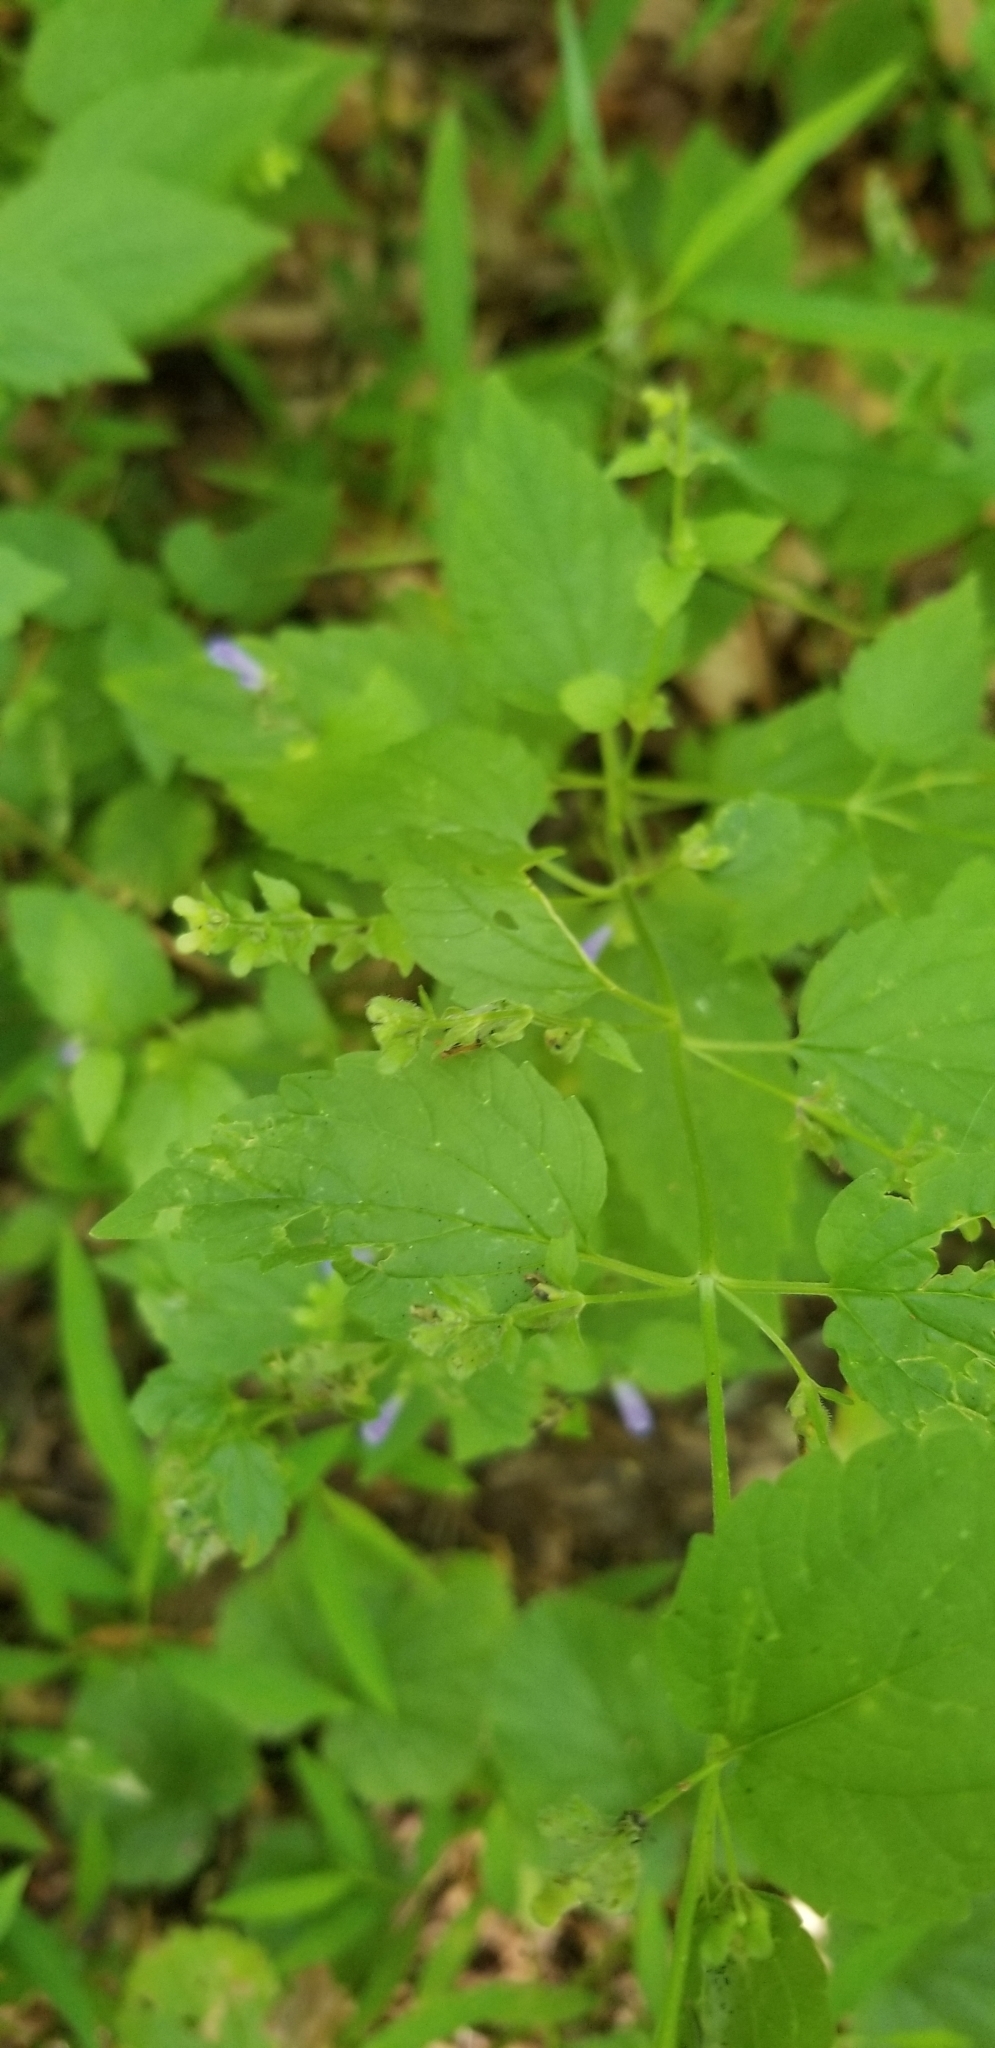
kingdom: Plantae
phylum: Tracheophyta
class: Magnoliopsida
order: Lamiales
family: Lamiaceae
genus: Scutellaria
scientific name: Scutellaria lateriflora
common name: Blue skullcap
